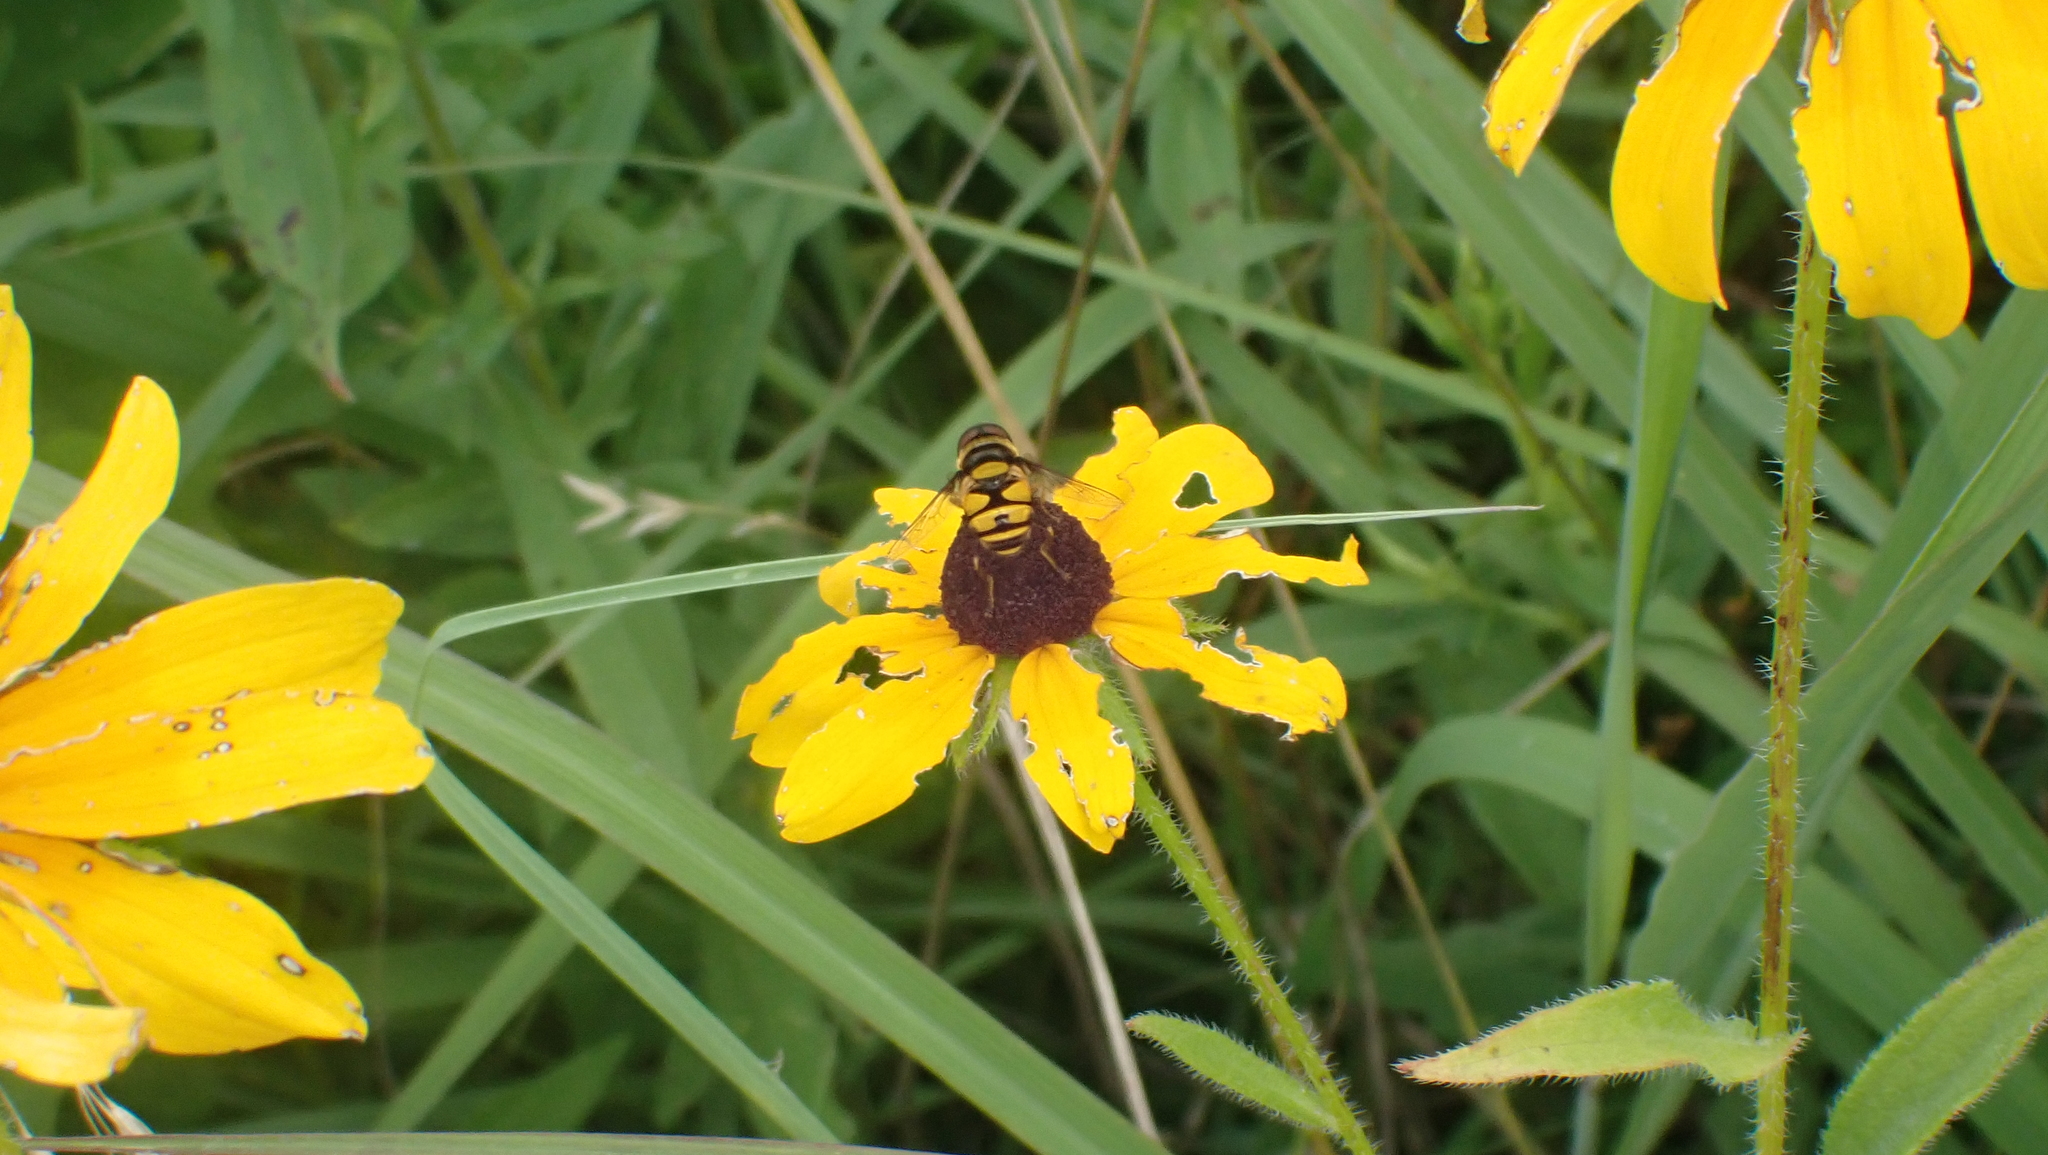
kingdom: Animalia
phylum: Arthropoda
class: Insecta
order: Diptera
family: Syrphidae
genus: Eristalis
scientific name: Eristalis transversa
